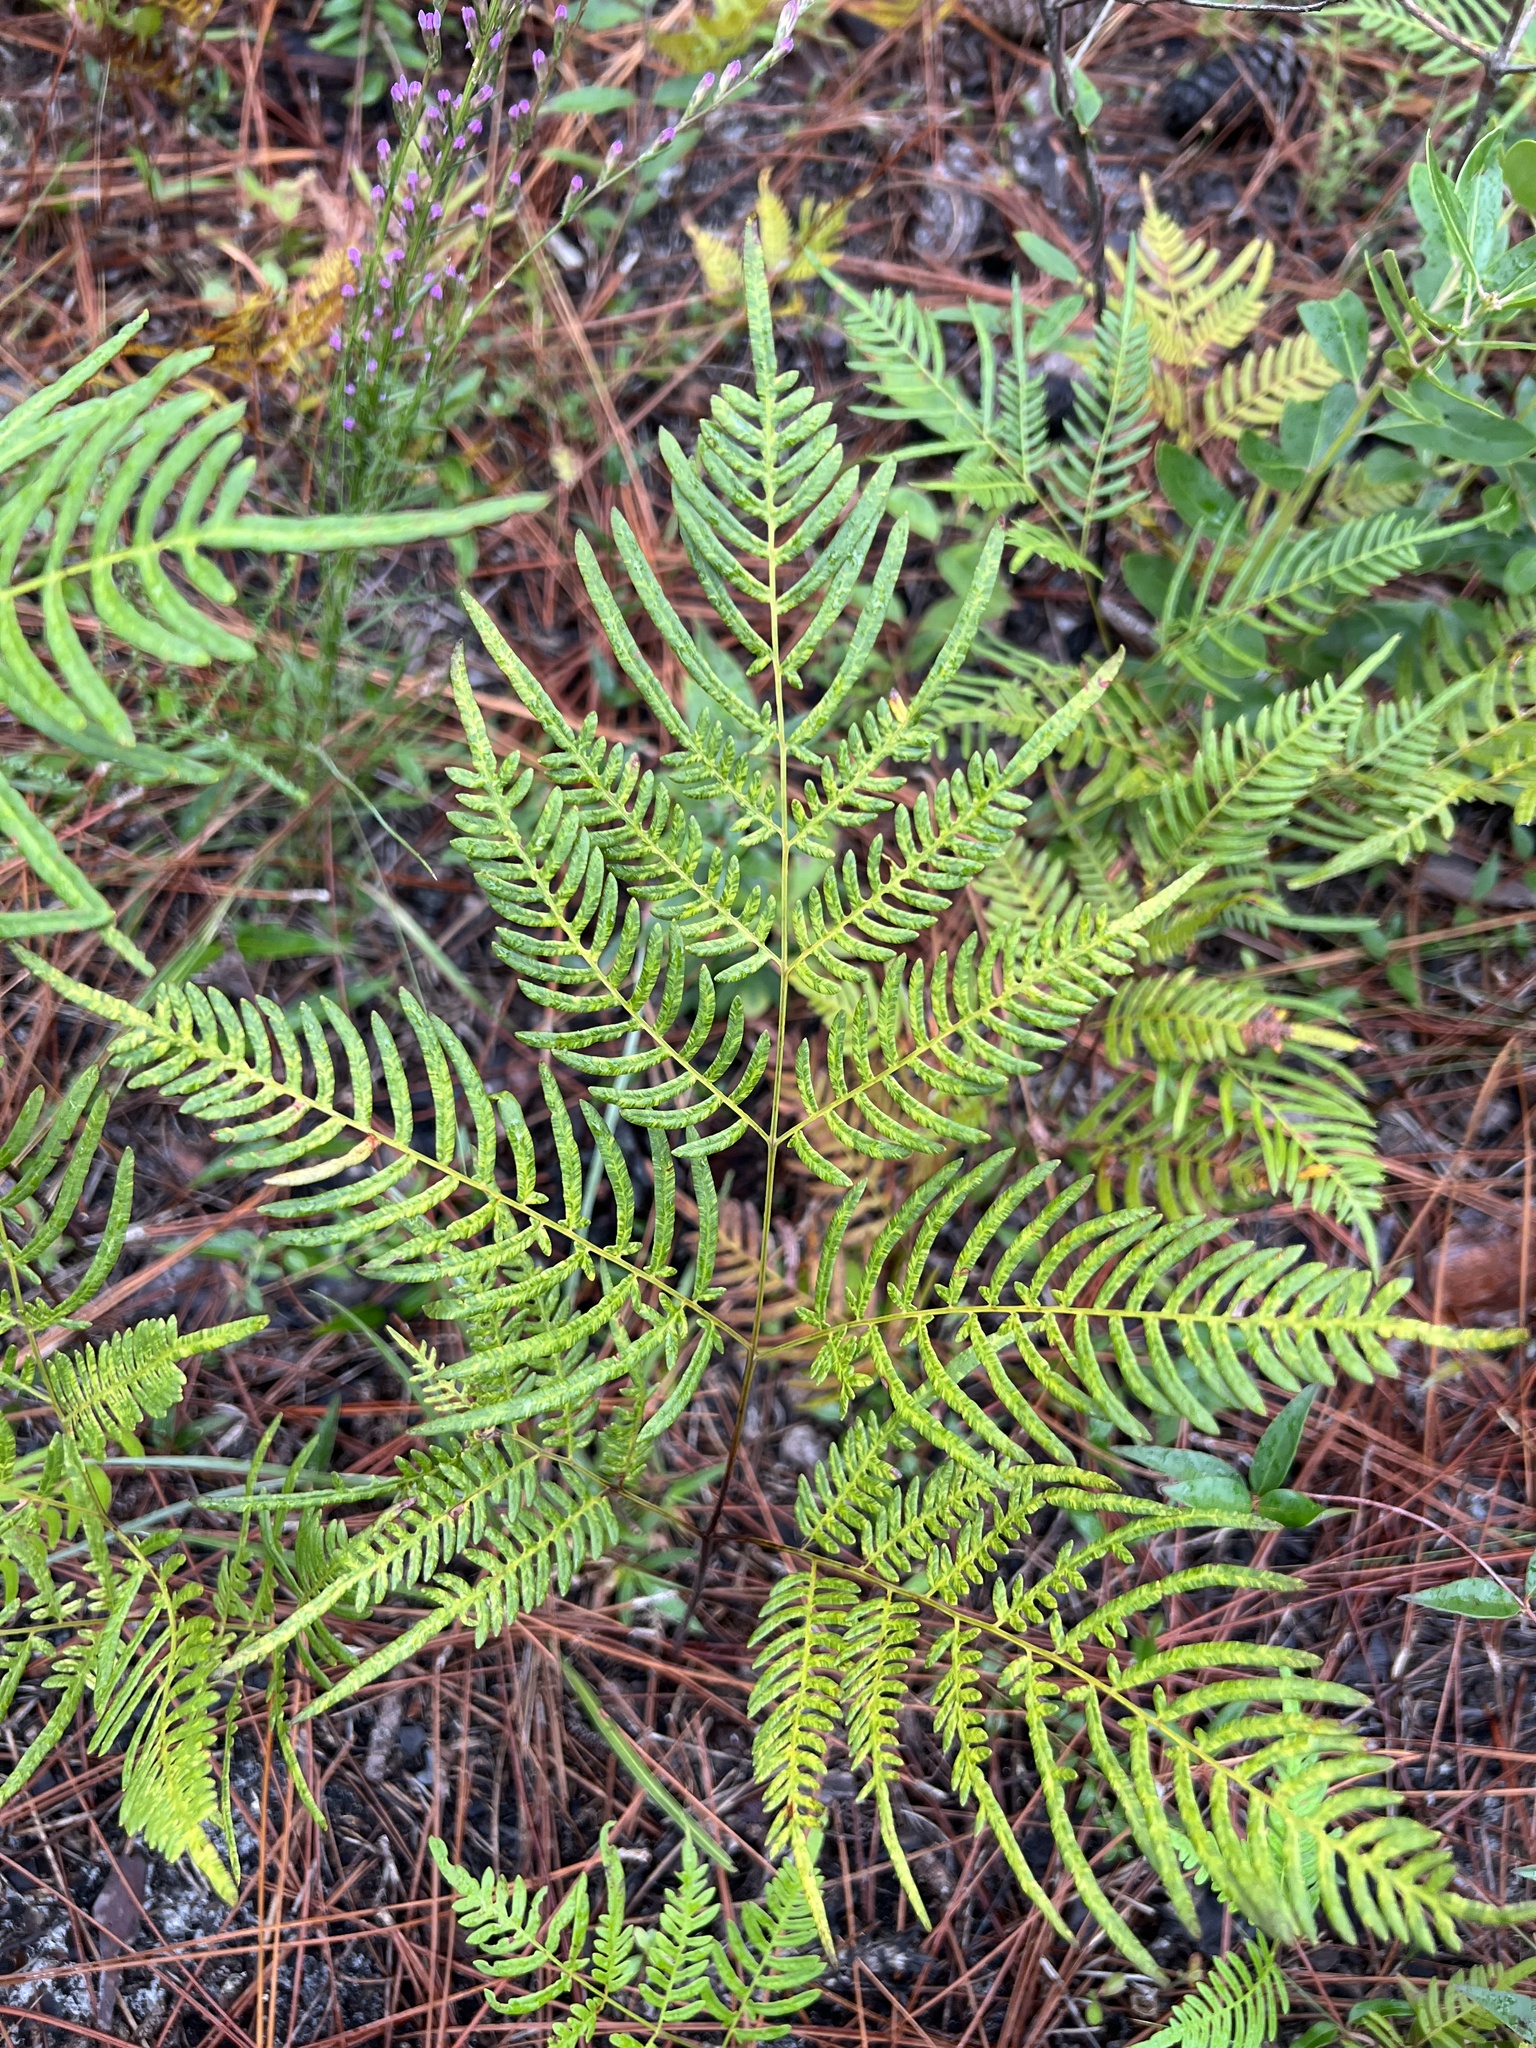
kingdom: Plantae
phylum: Tracheophyta
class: Polypodiopsida
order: Polypodiales
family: Dennstaedtiaceae
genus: Pteridium
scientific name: Pteridium
